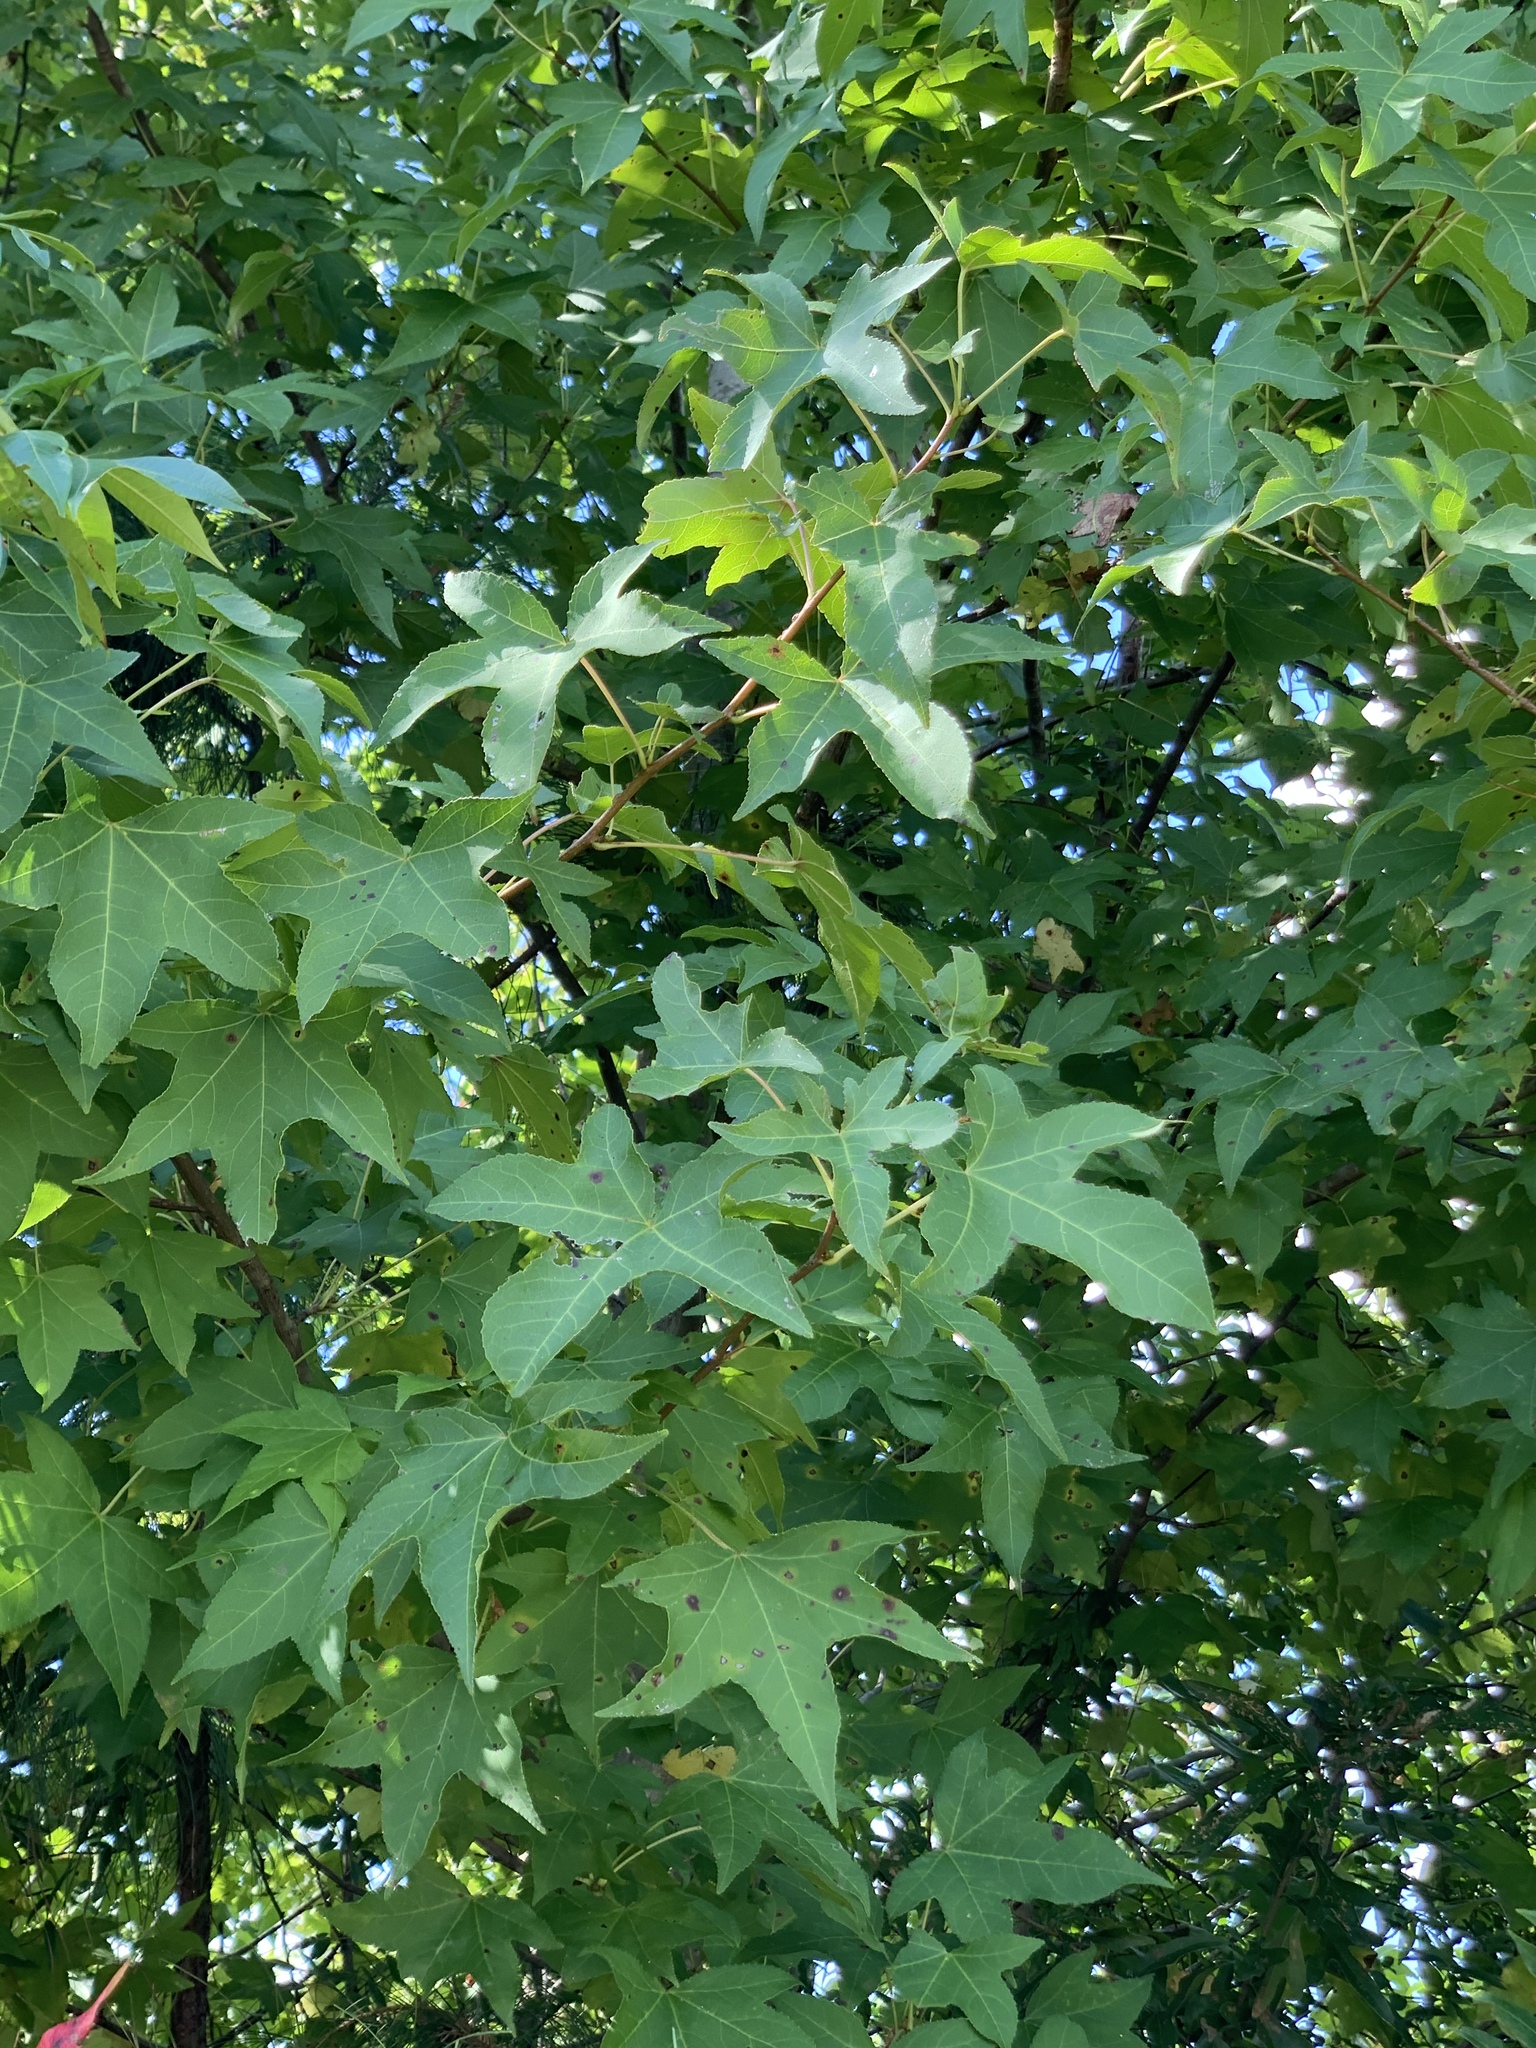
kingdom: Plantae
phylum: Tracheophyta
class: Magnoliopsida
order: Saxifragales
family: Altingiaceae
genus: Liquidambar
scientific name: Liquidambar styraciflua
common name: Sweet gum
